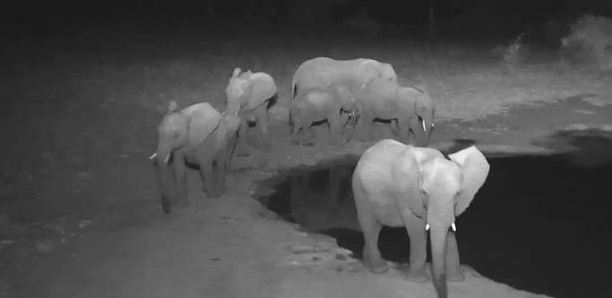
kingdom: Animalia
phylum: Chordata
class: Mammalia
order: Proboscidea
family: Elephantidae
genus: Loxodonta
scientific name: Loxodonta africana
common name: African elephant
